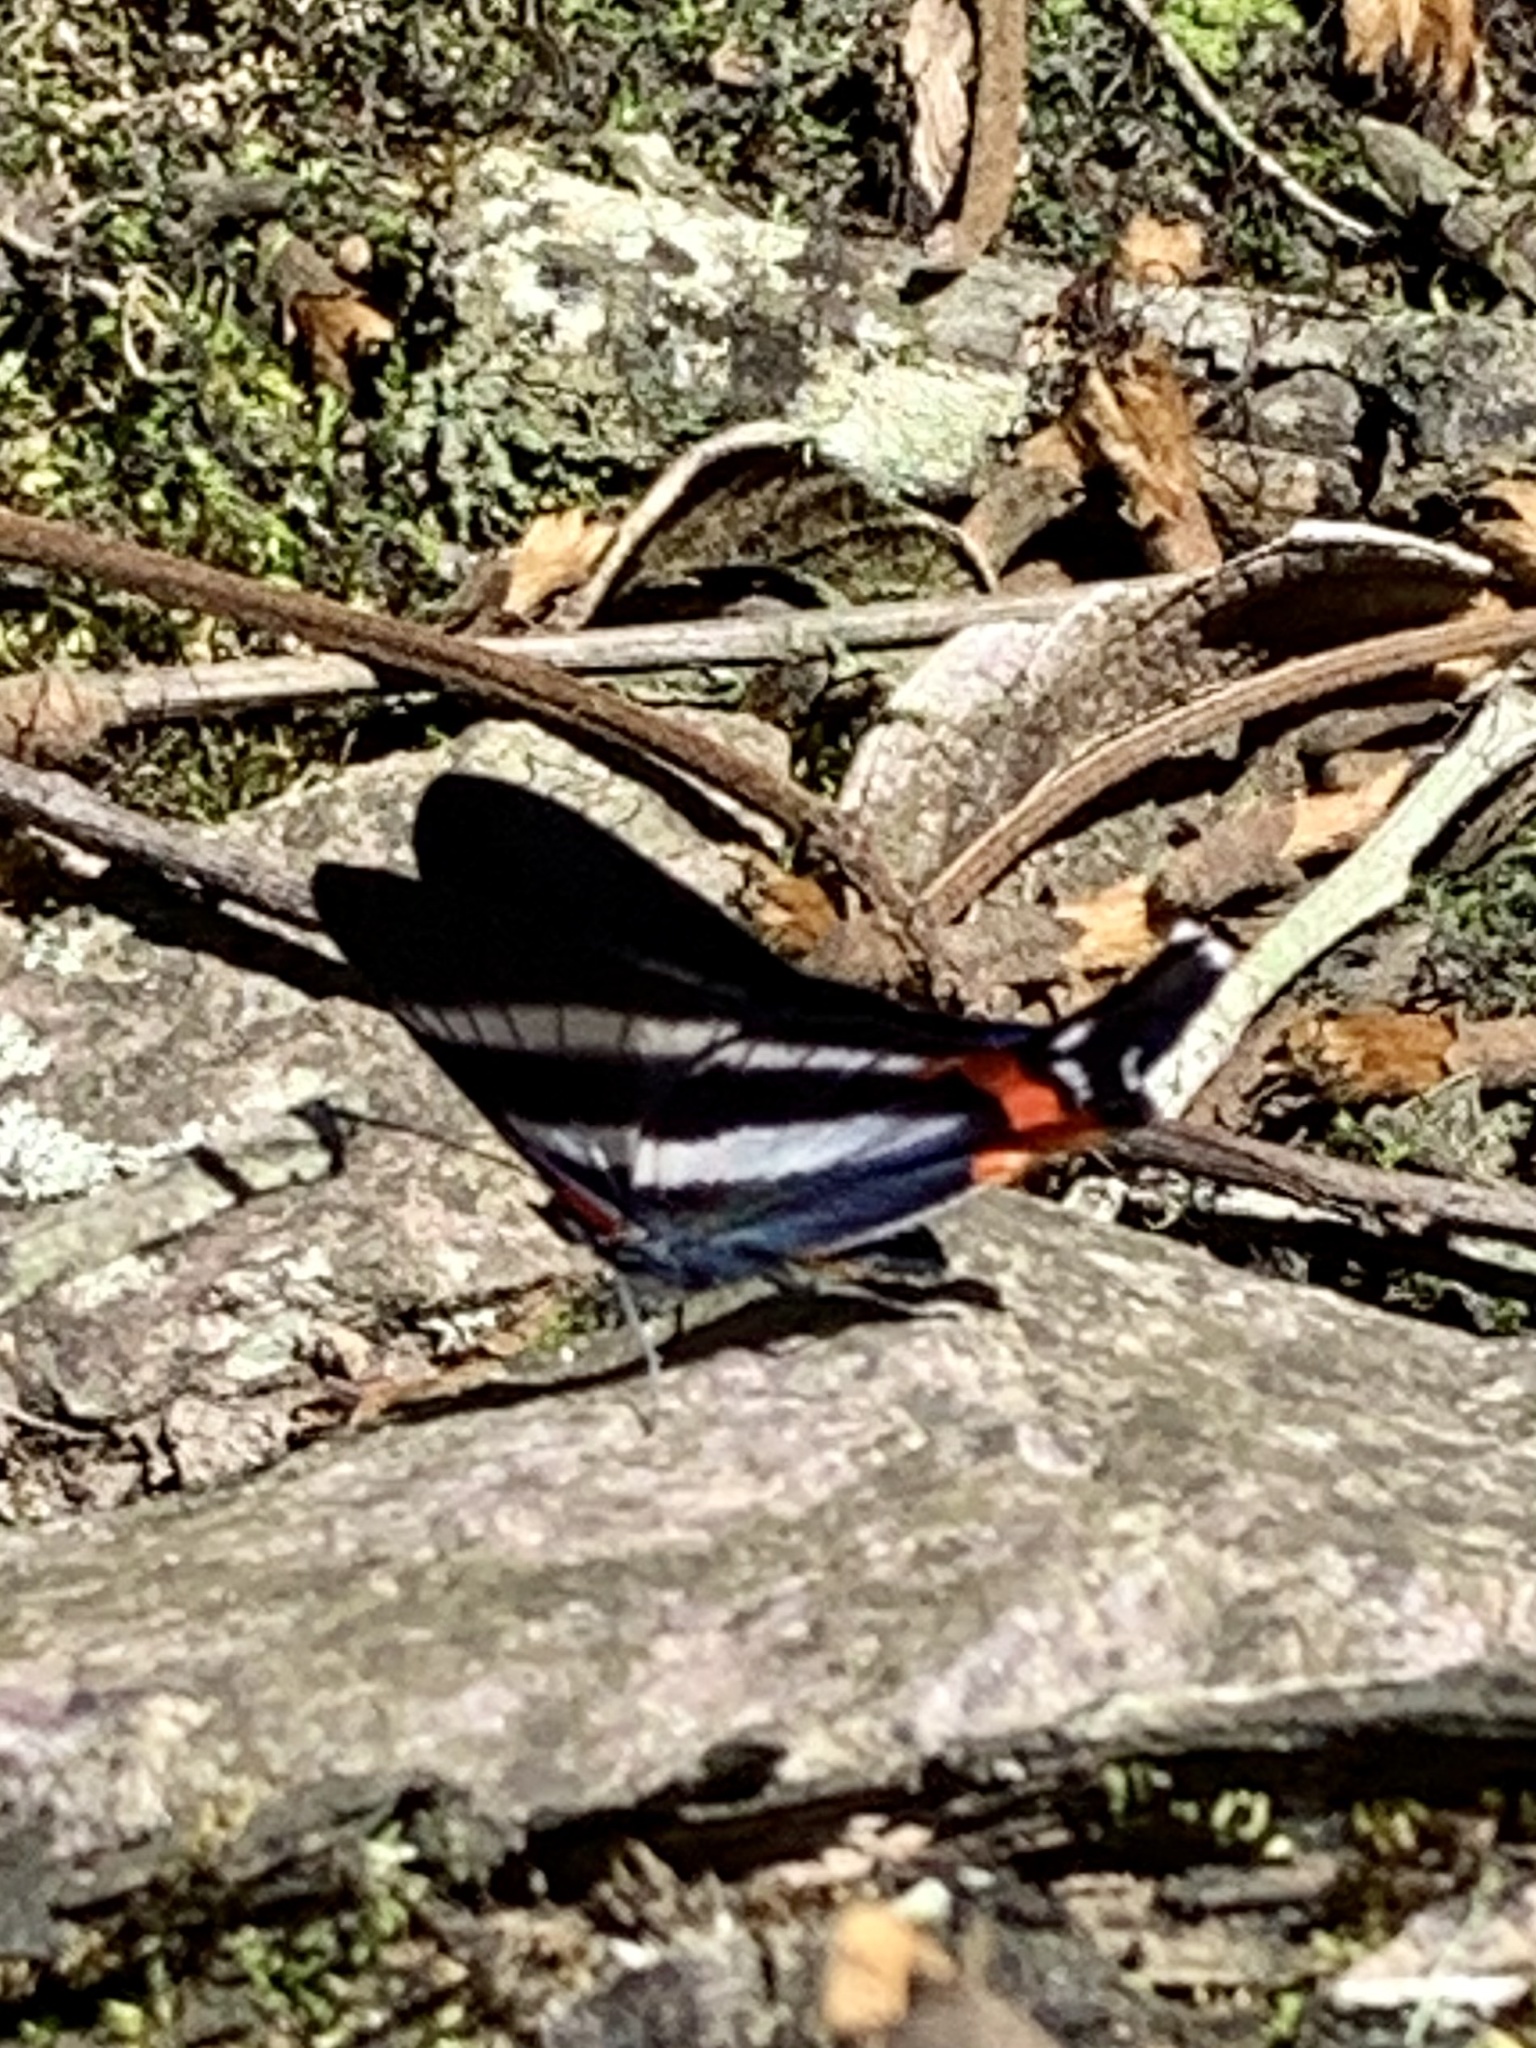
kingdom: Animalia
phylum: Arthropoda
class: Insecta
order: Lepidoptera
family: Riodinidae
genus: Rhetus
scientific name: Rhetus dysonii
